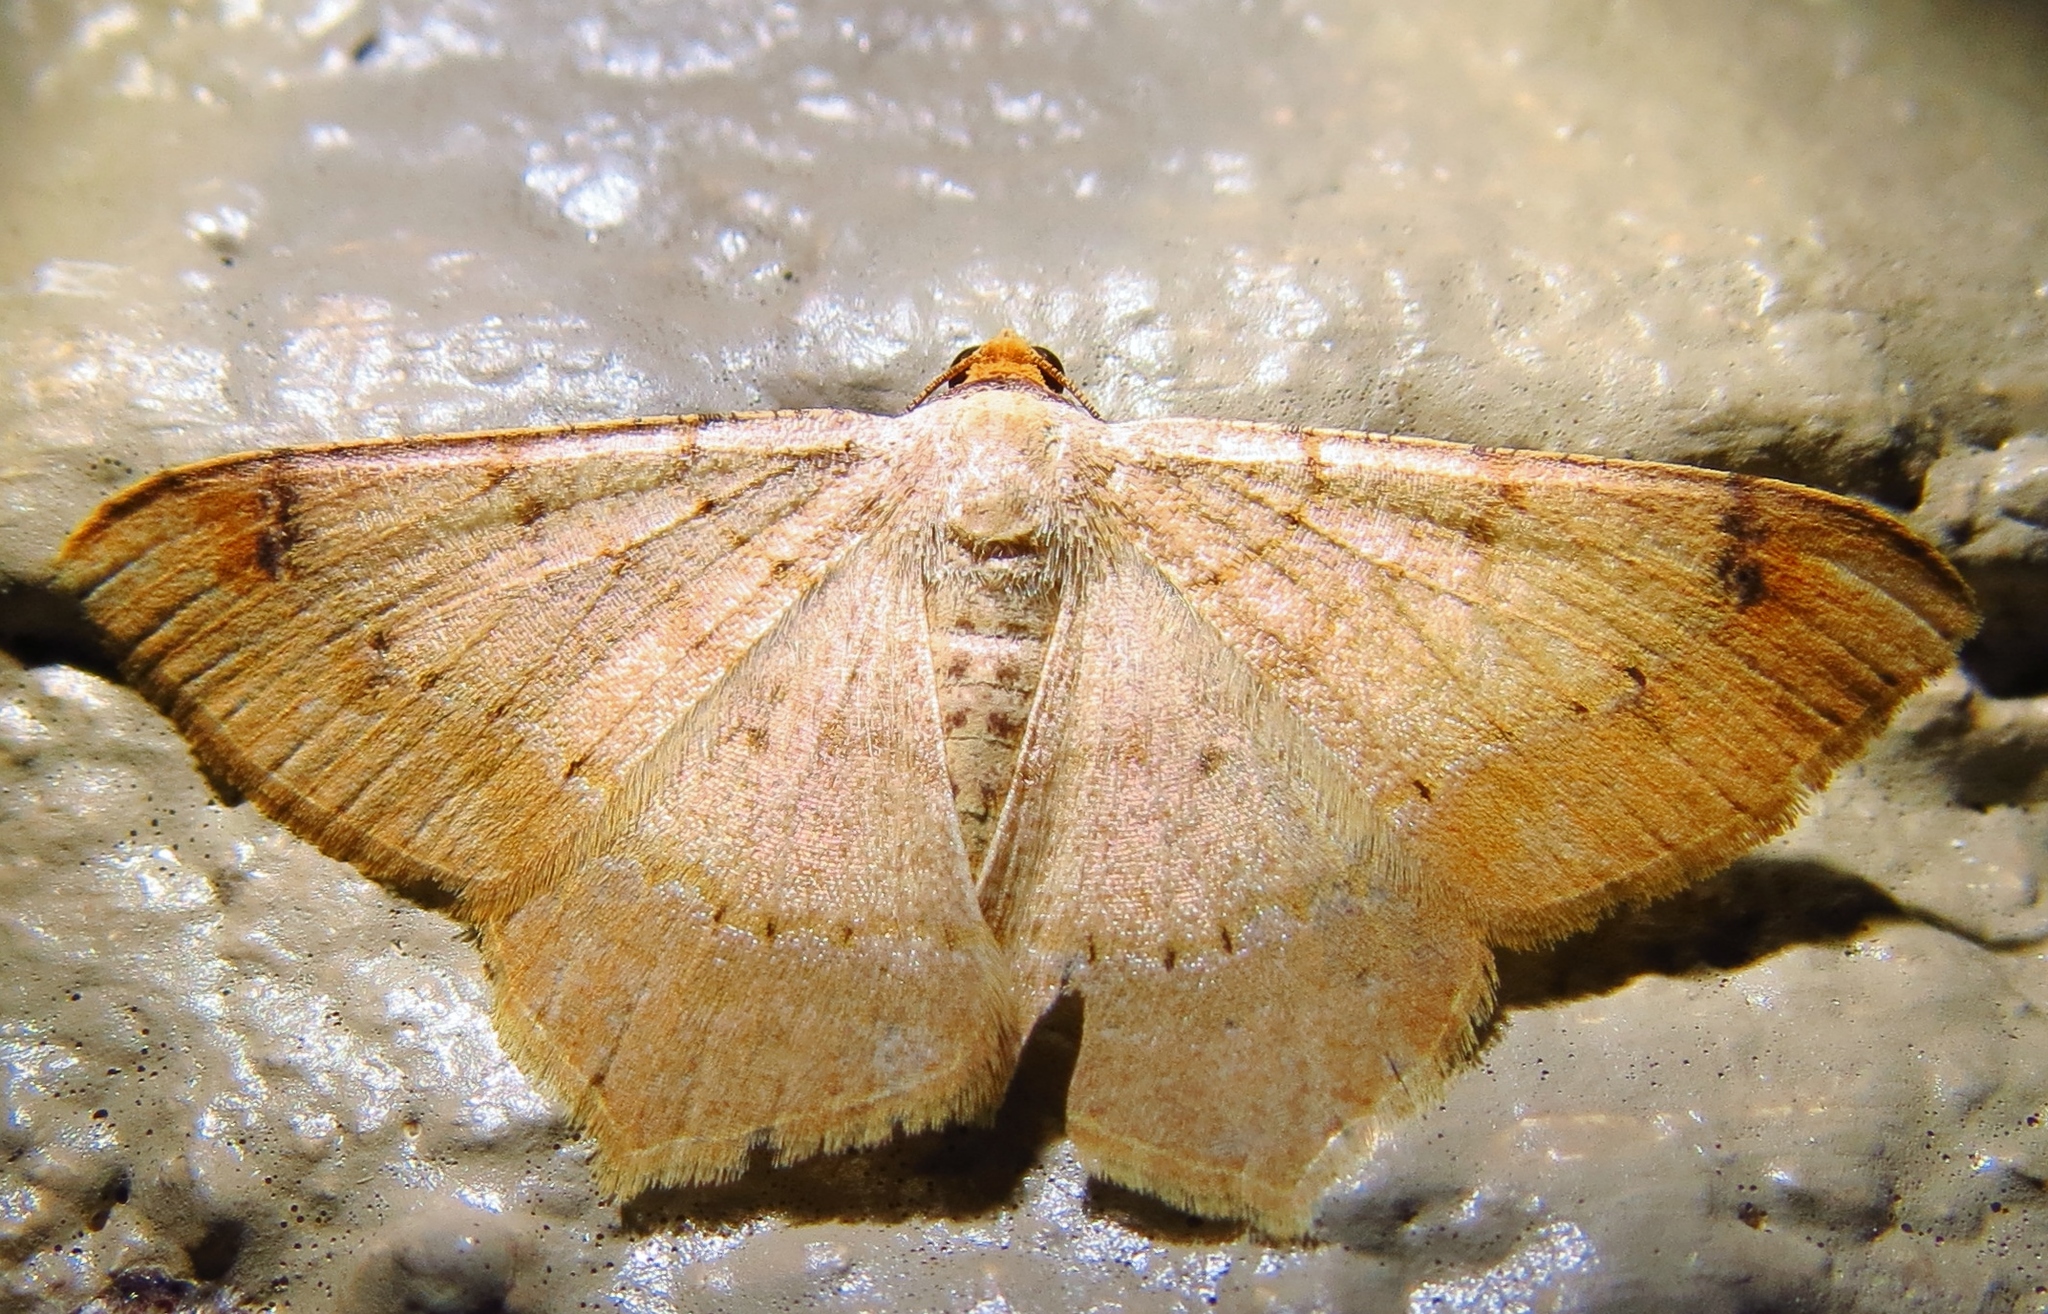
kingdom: Animalia
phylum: Arthropoda
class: Insecta
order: Lepidoptera
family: Geometridae
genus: Macaria
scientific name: Macaria abydata
